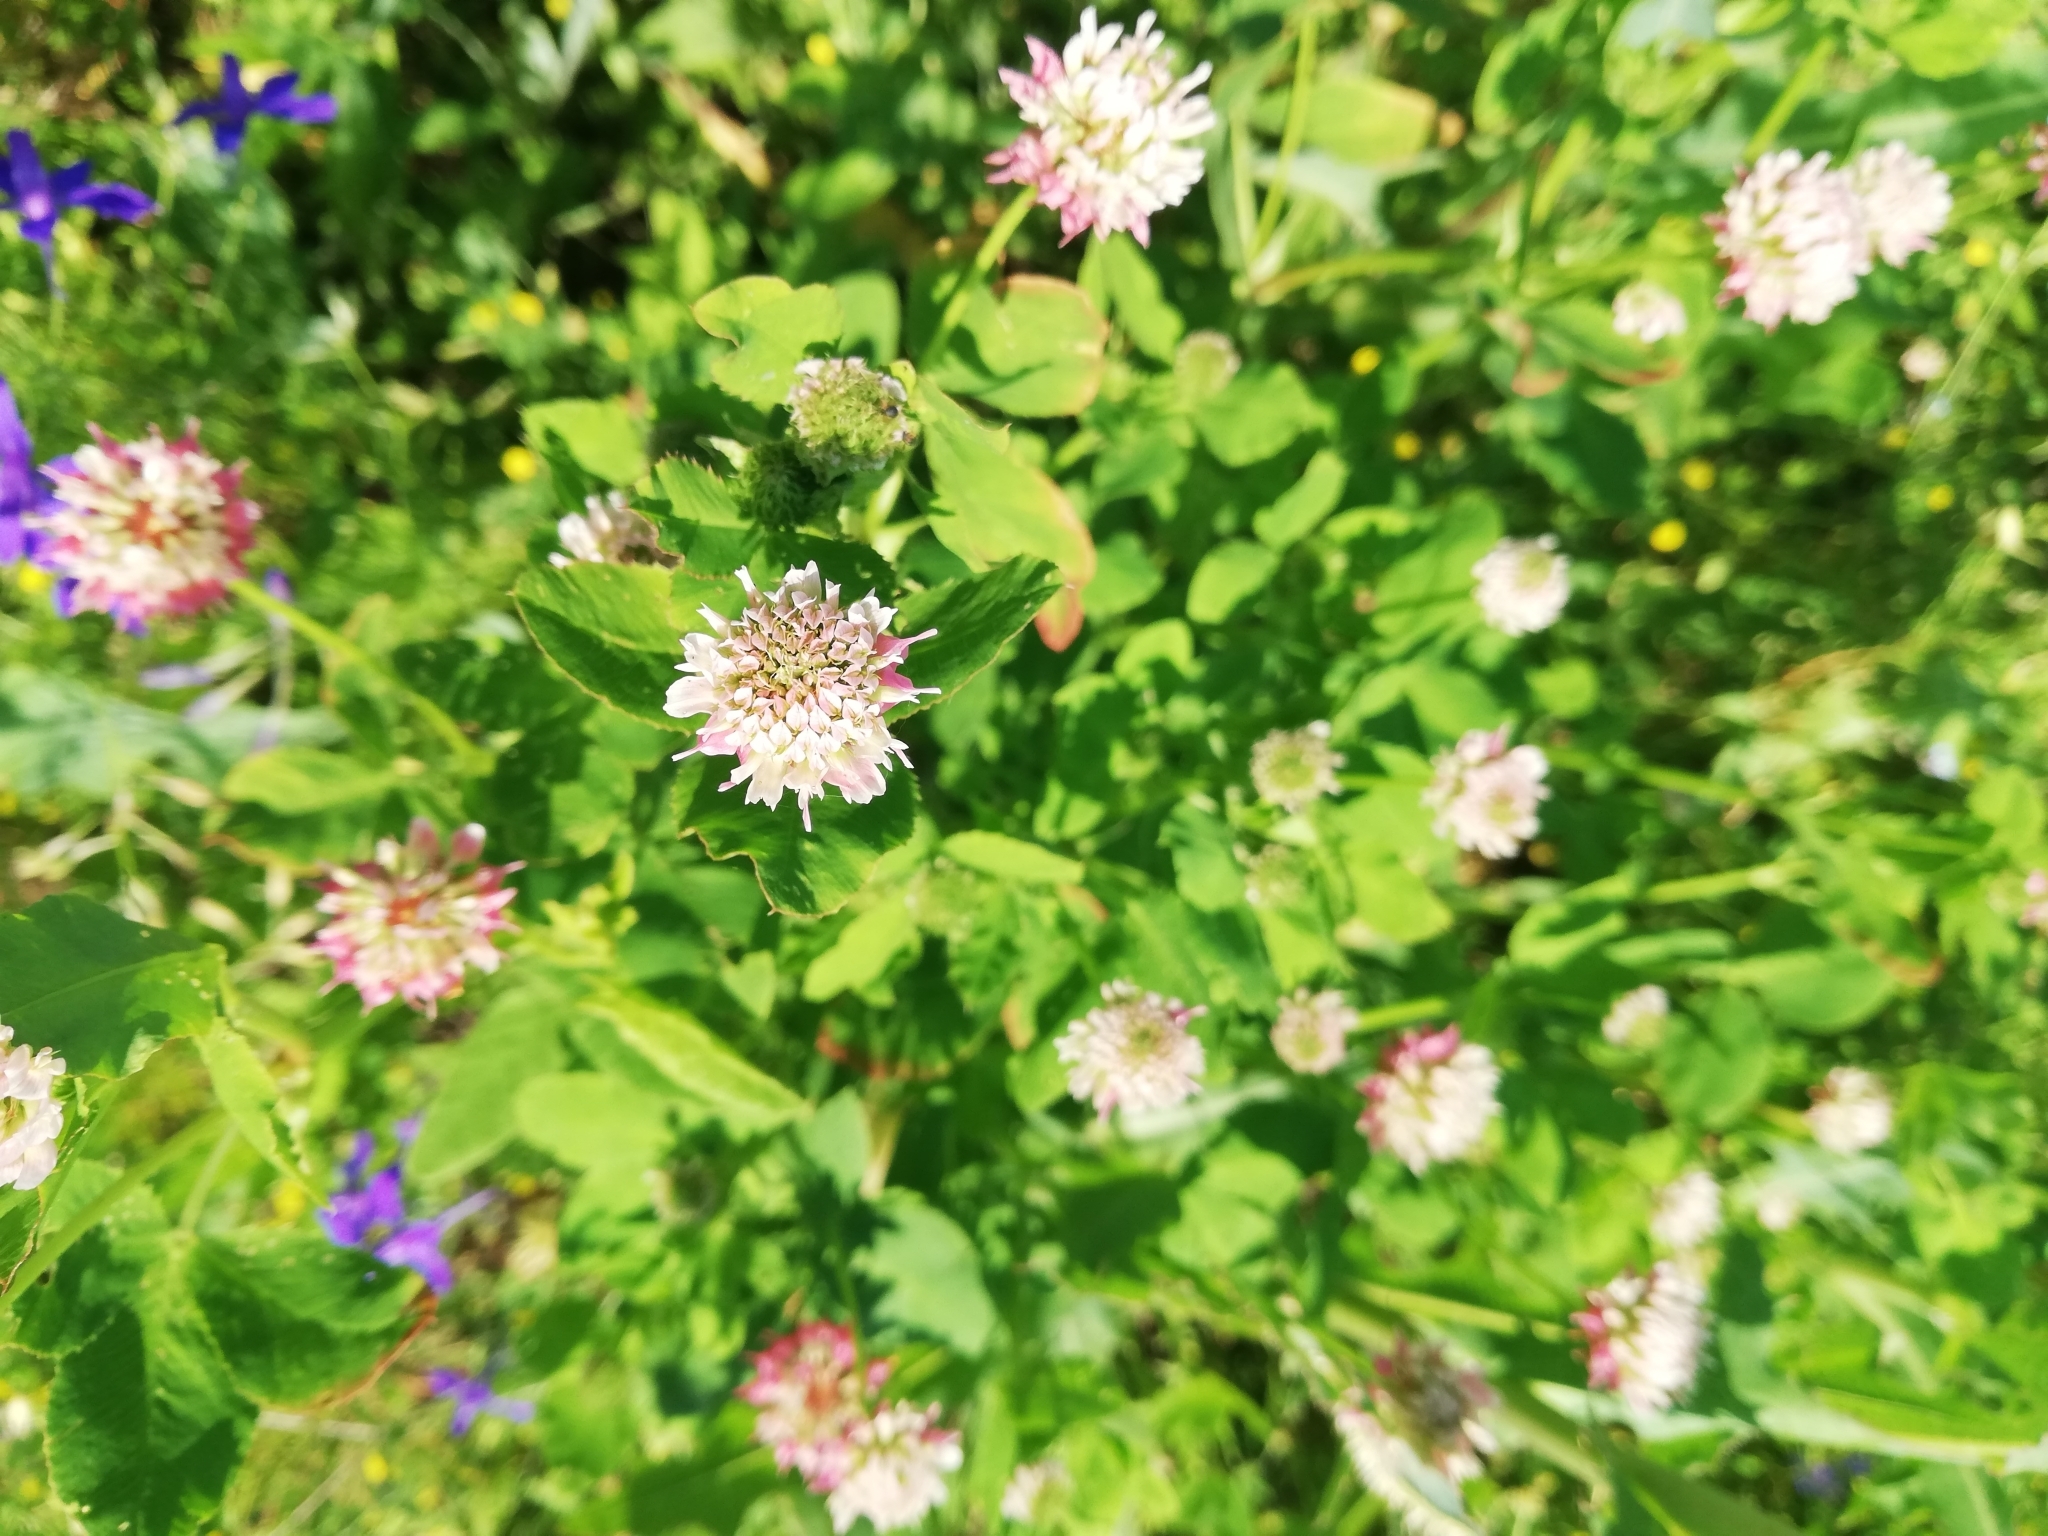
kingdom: Plantae
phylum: Tracheophyta
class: Magnoliopsida
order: Fabales
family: Fabaceae
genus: Trifolium
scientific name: Trifolium hybridum
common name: Alsike clover
